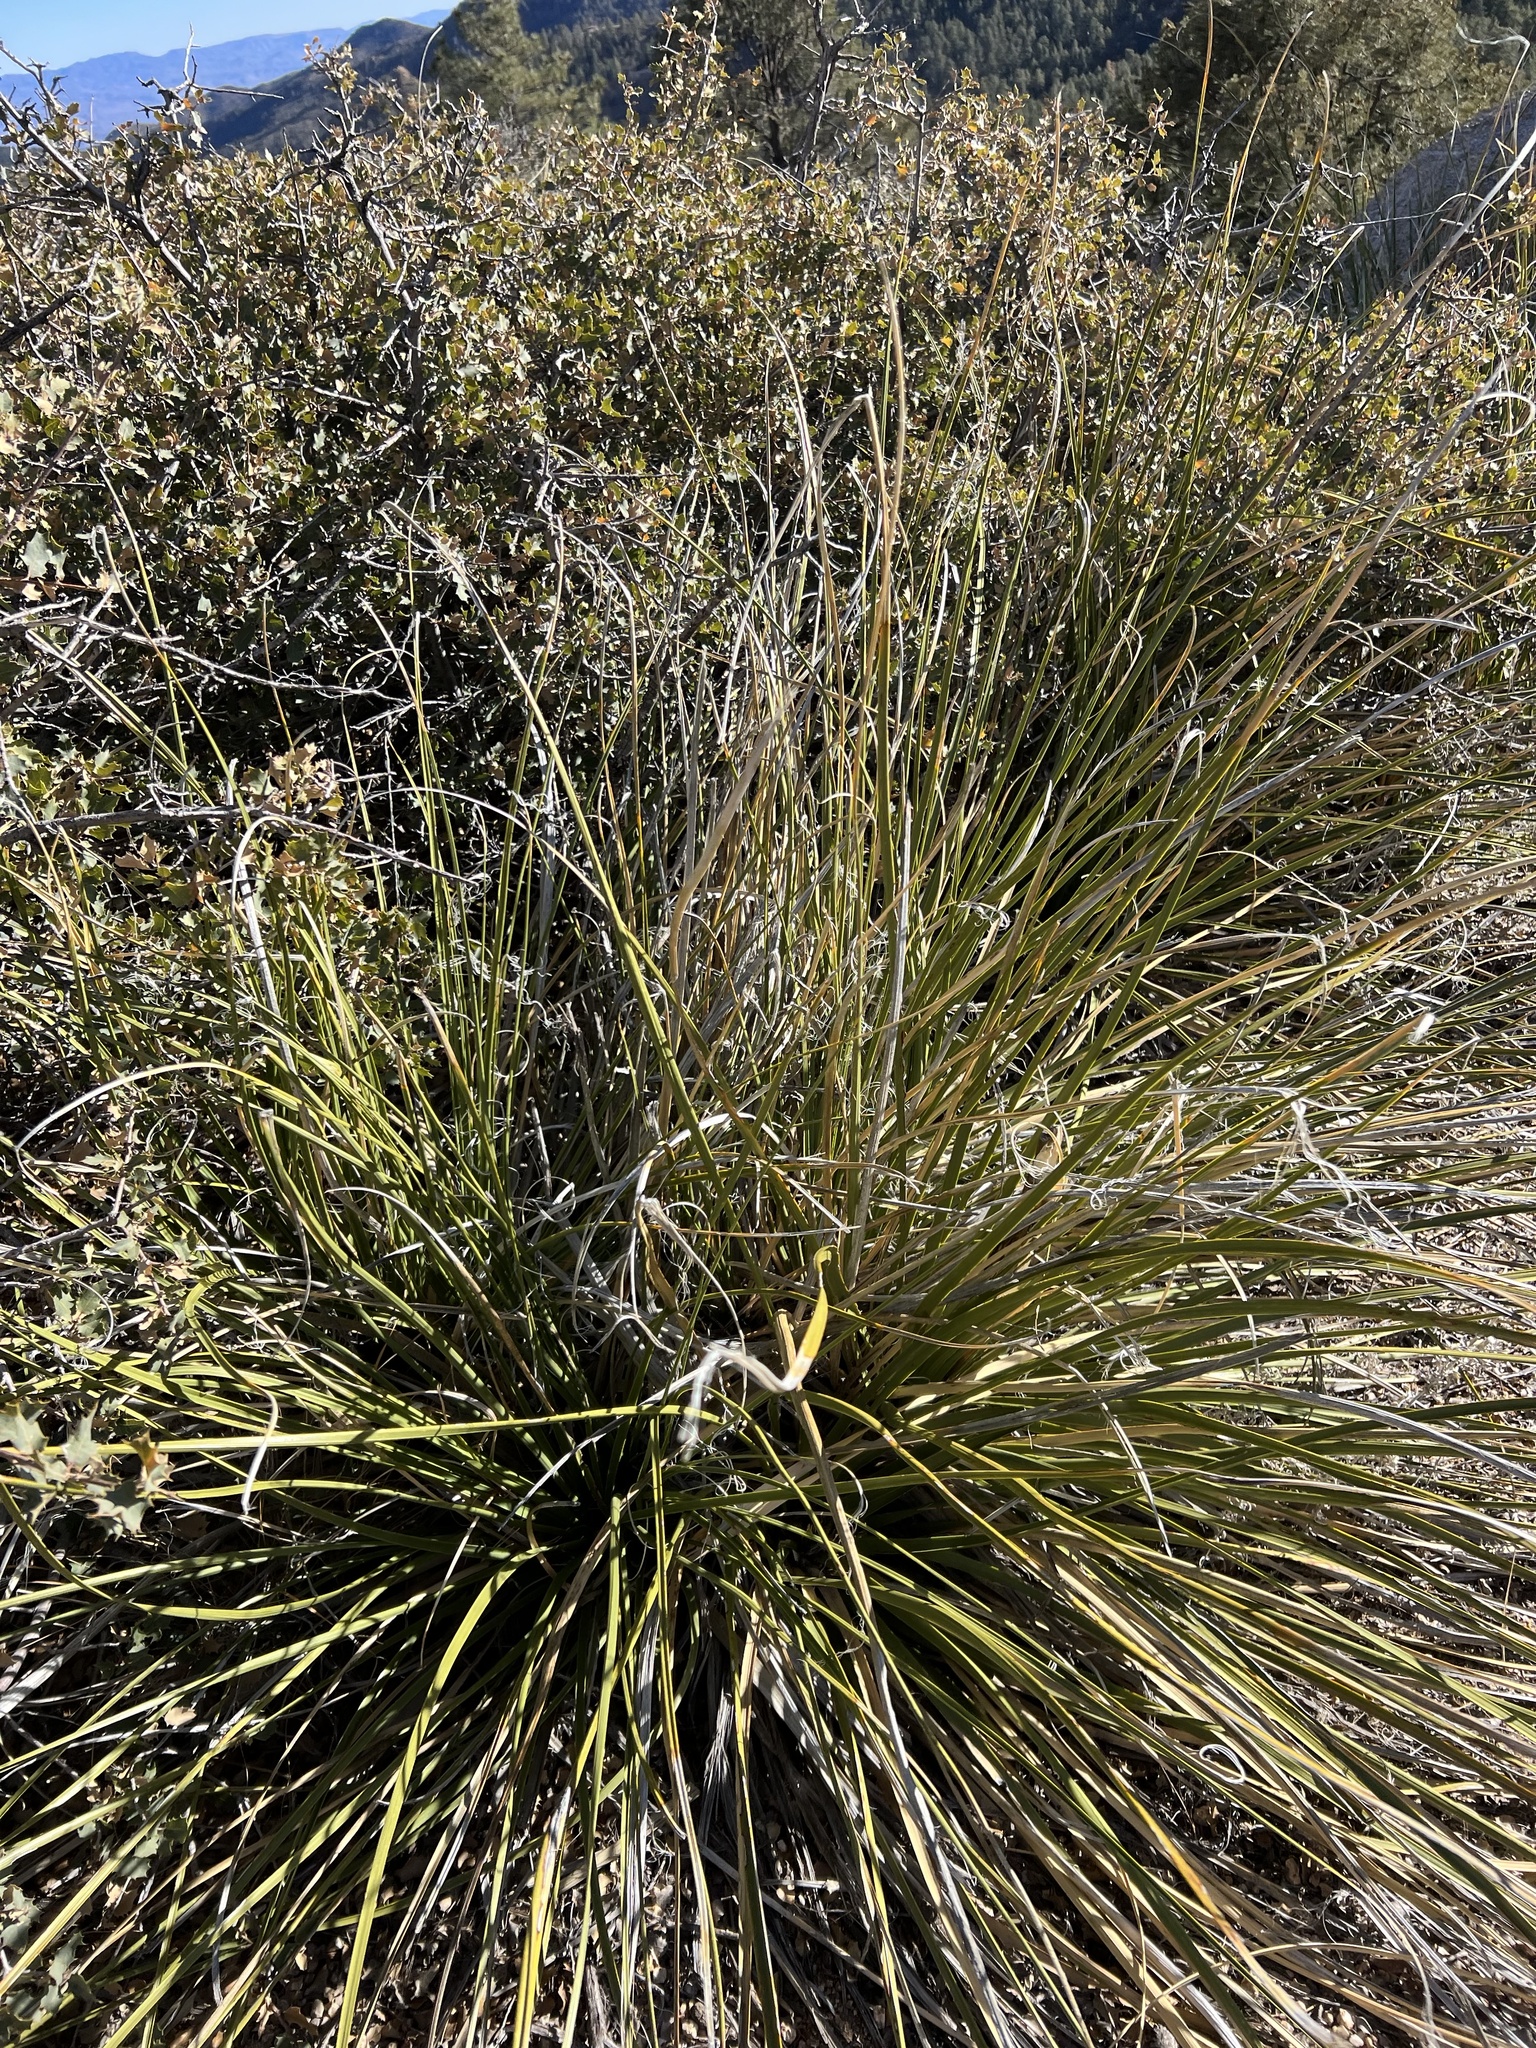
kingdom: Plantae
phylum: Tracheophyta
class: Liliopsida
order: Asparagales
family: Asparagaceae
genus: Nolina
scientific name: Nolina microcarpa
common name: Bear-grass
